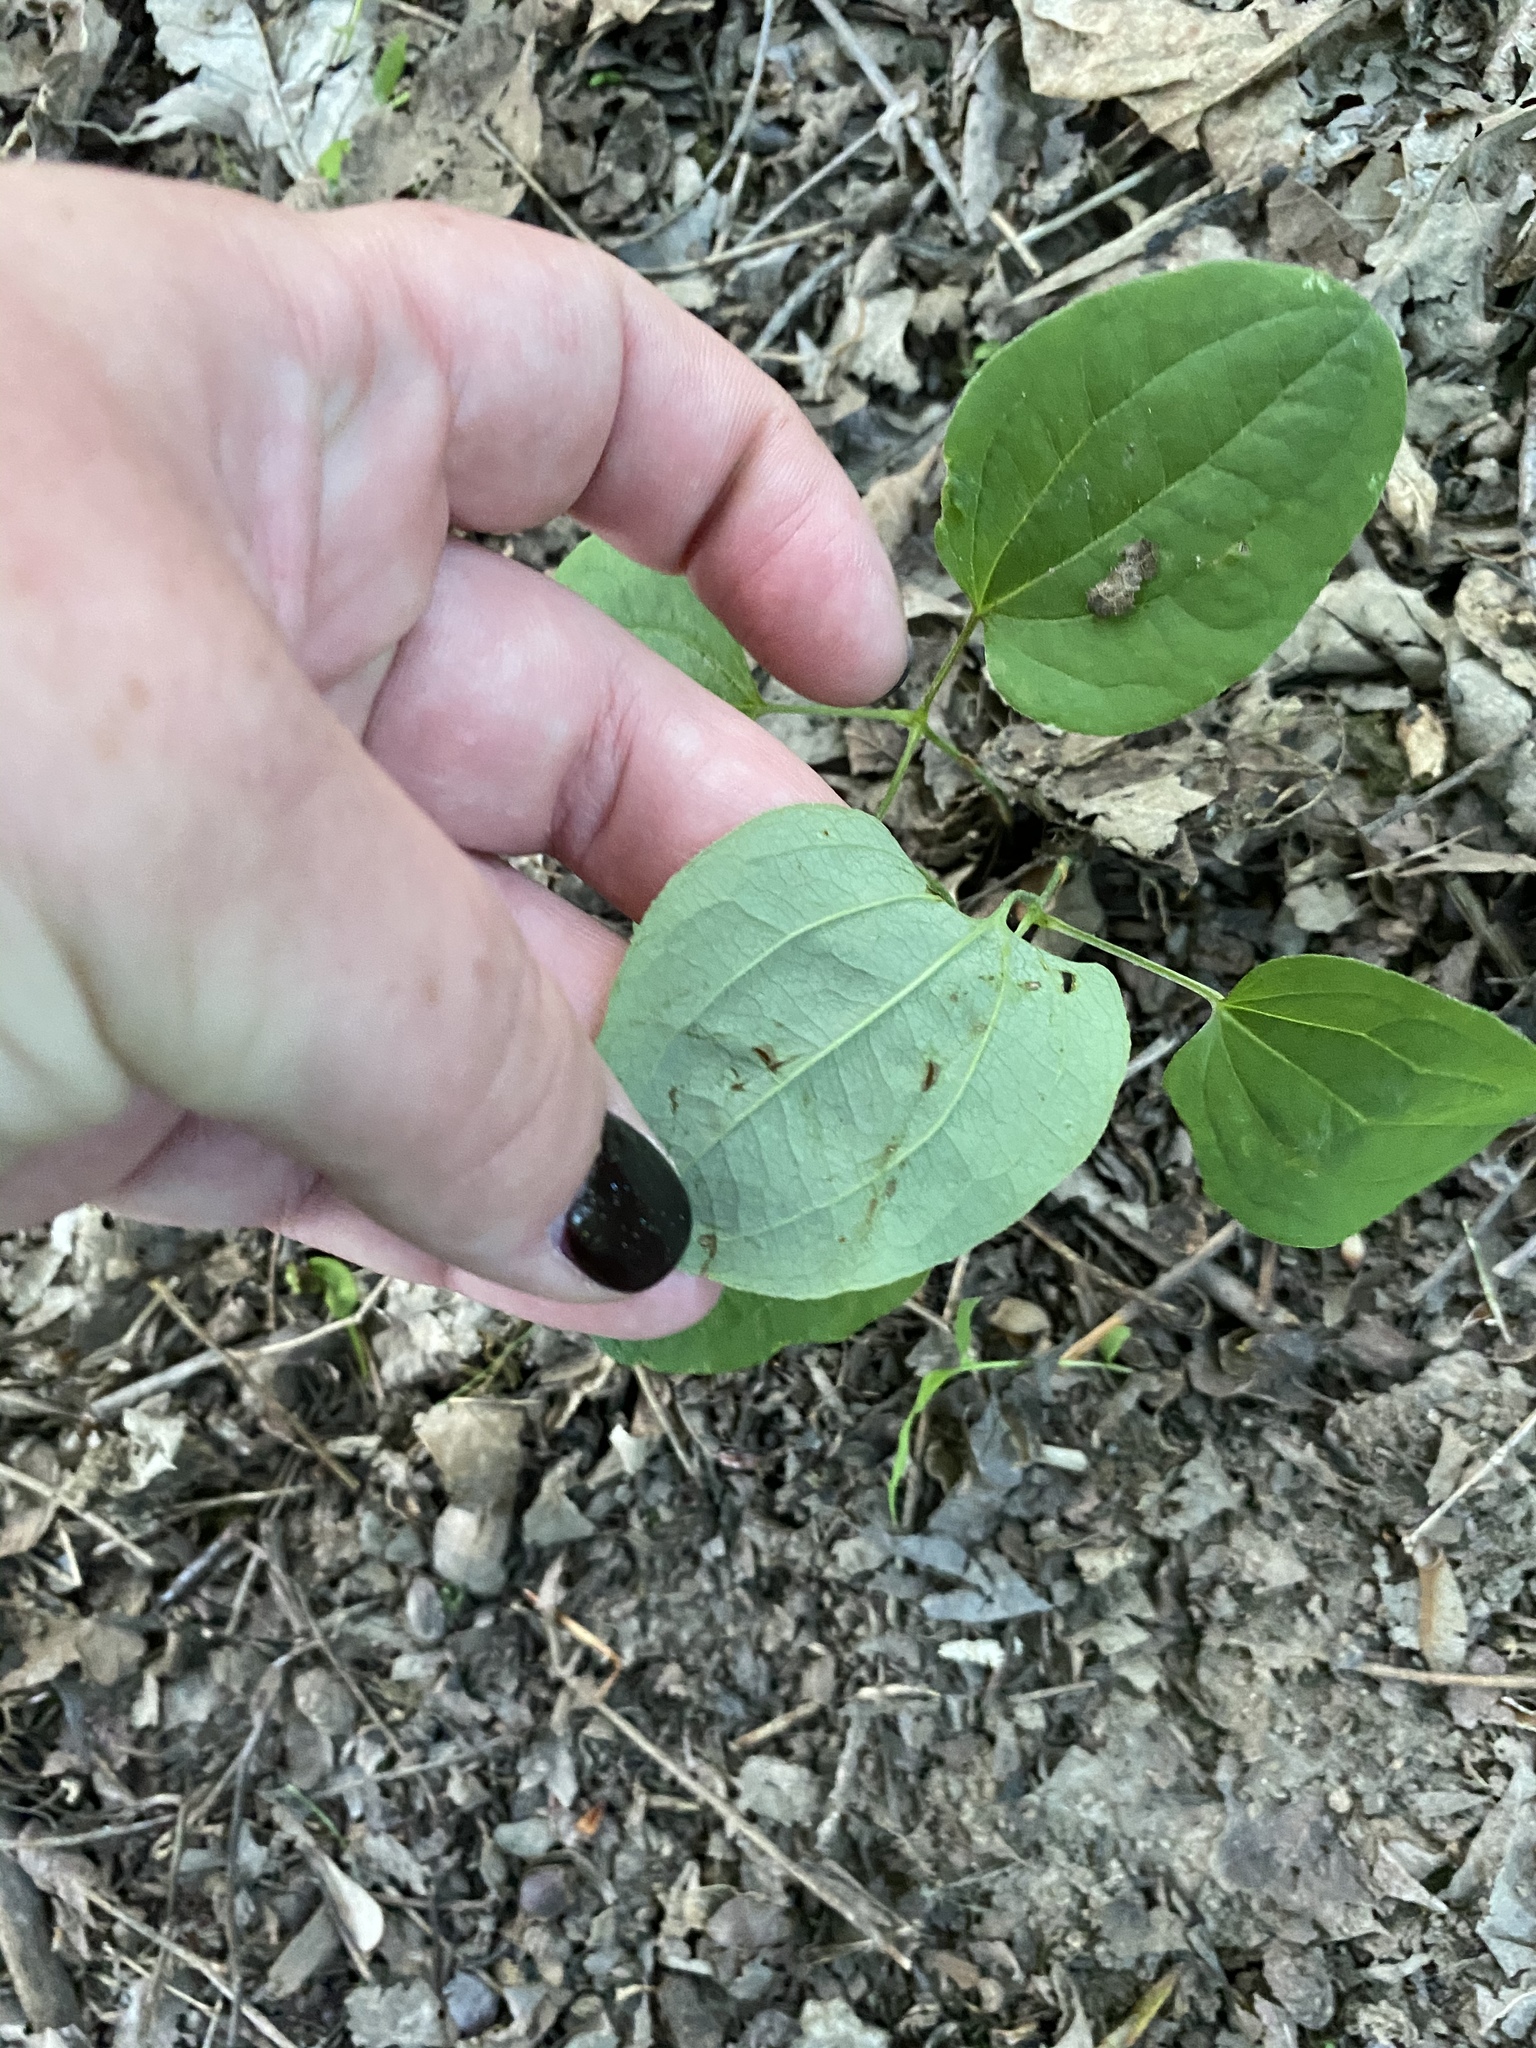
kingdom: Plantae
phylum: Tracheophyta
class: Liliopsida
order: Liliales
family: Smilacaceae
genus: Smilax
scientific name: Smilax herbacea
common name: Jacob's-ladder
